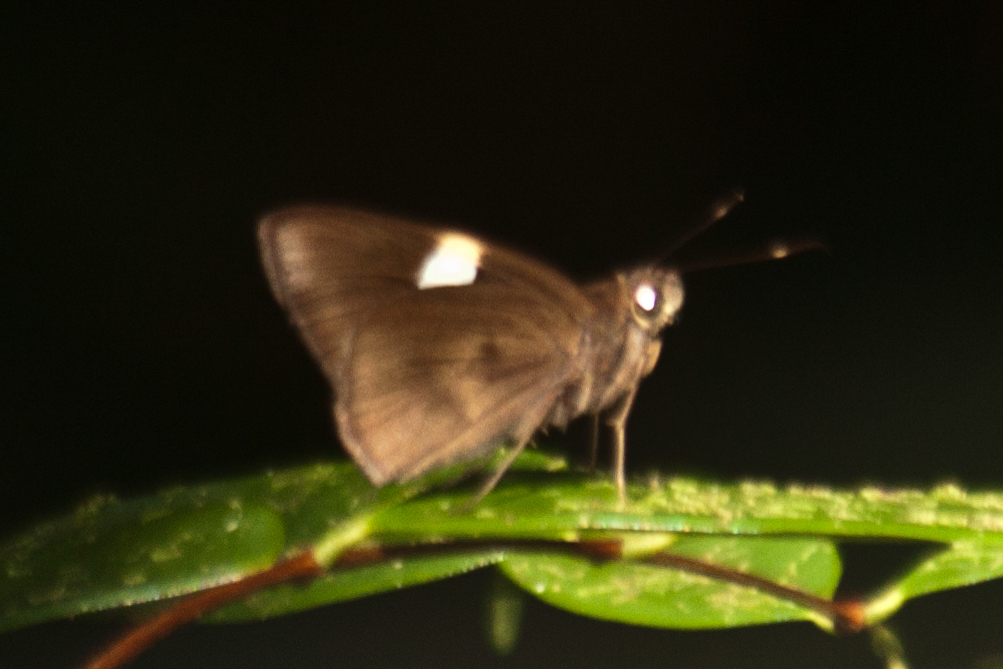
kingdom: Animalia
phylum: Arthropoda
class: Insecta
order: Lepidoptera
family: Hesperiidae
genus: Notocrypta
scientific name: Notocrypta clavata
